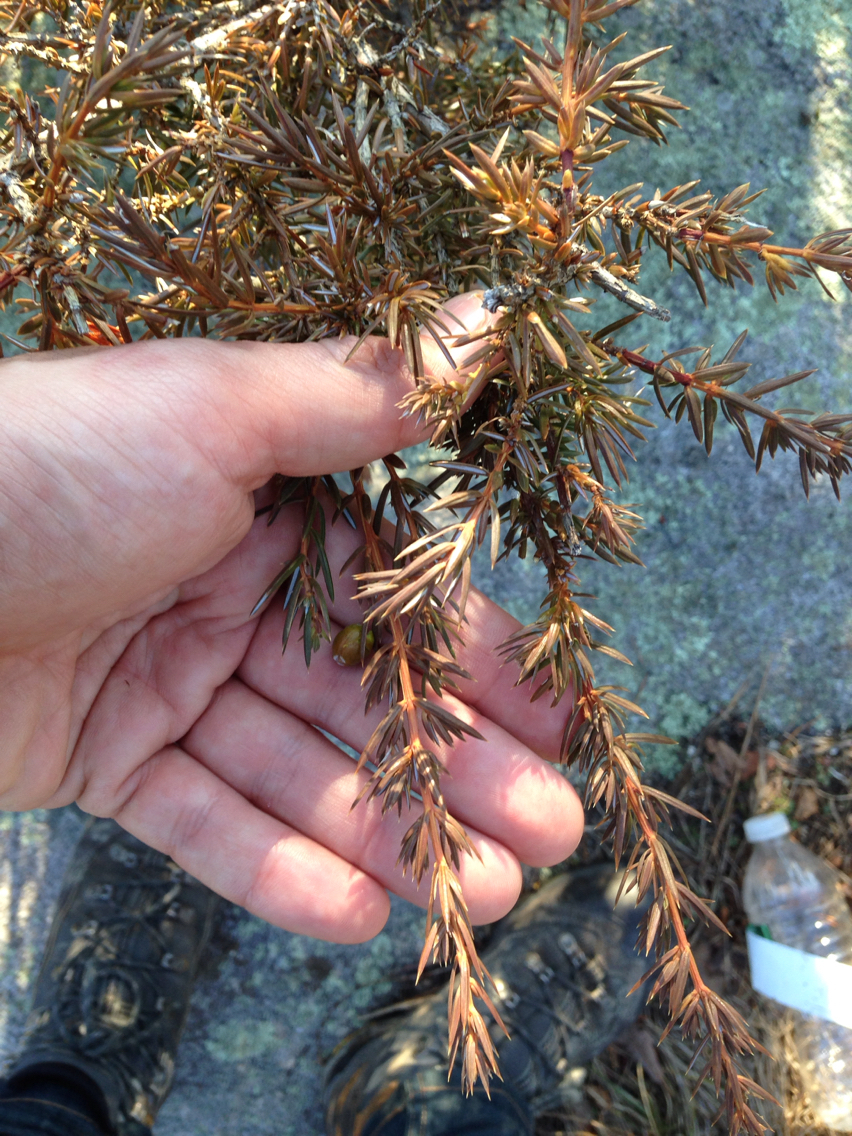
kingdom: Plantae
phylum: Tracheophyta
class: Pinopsida
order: Pinales
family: Cupressaceae
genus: Juniperus
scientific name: Juniperus communis
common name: Common juniper
